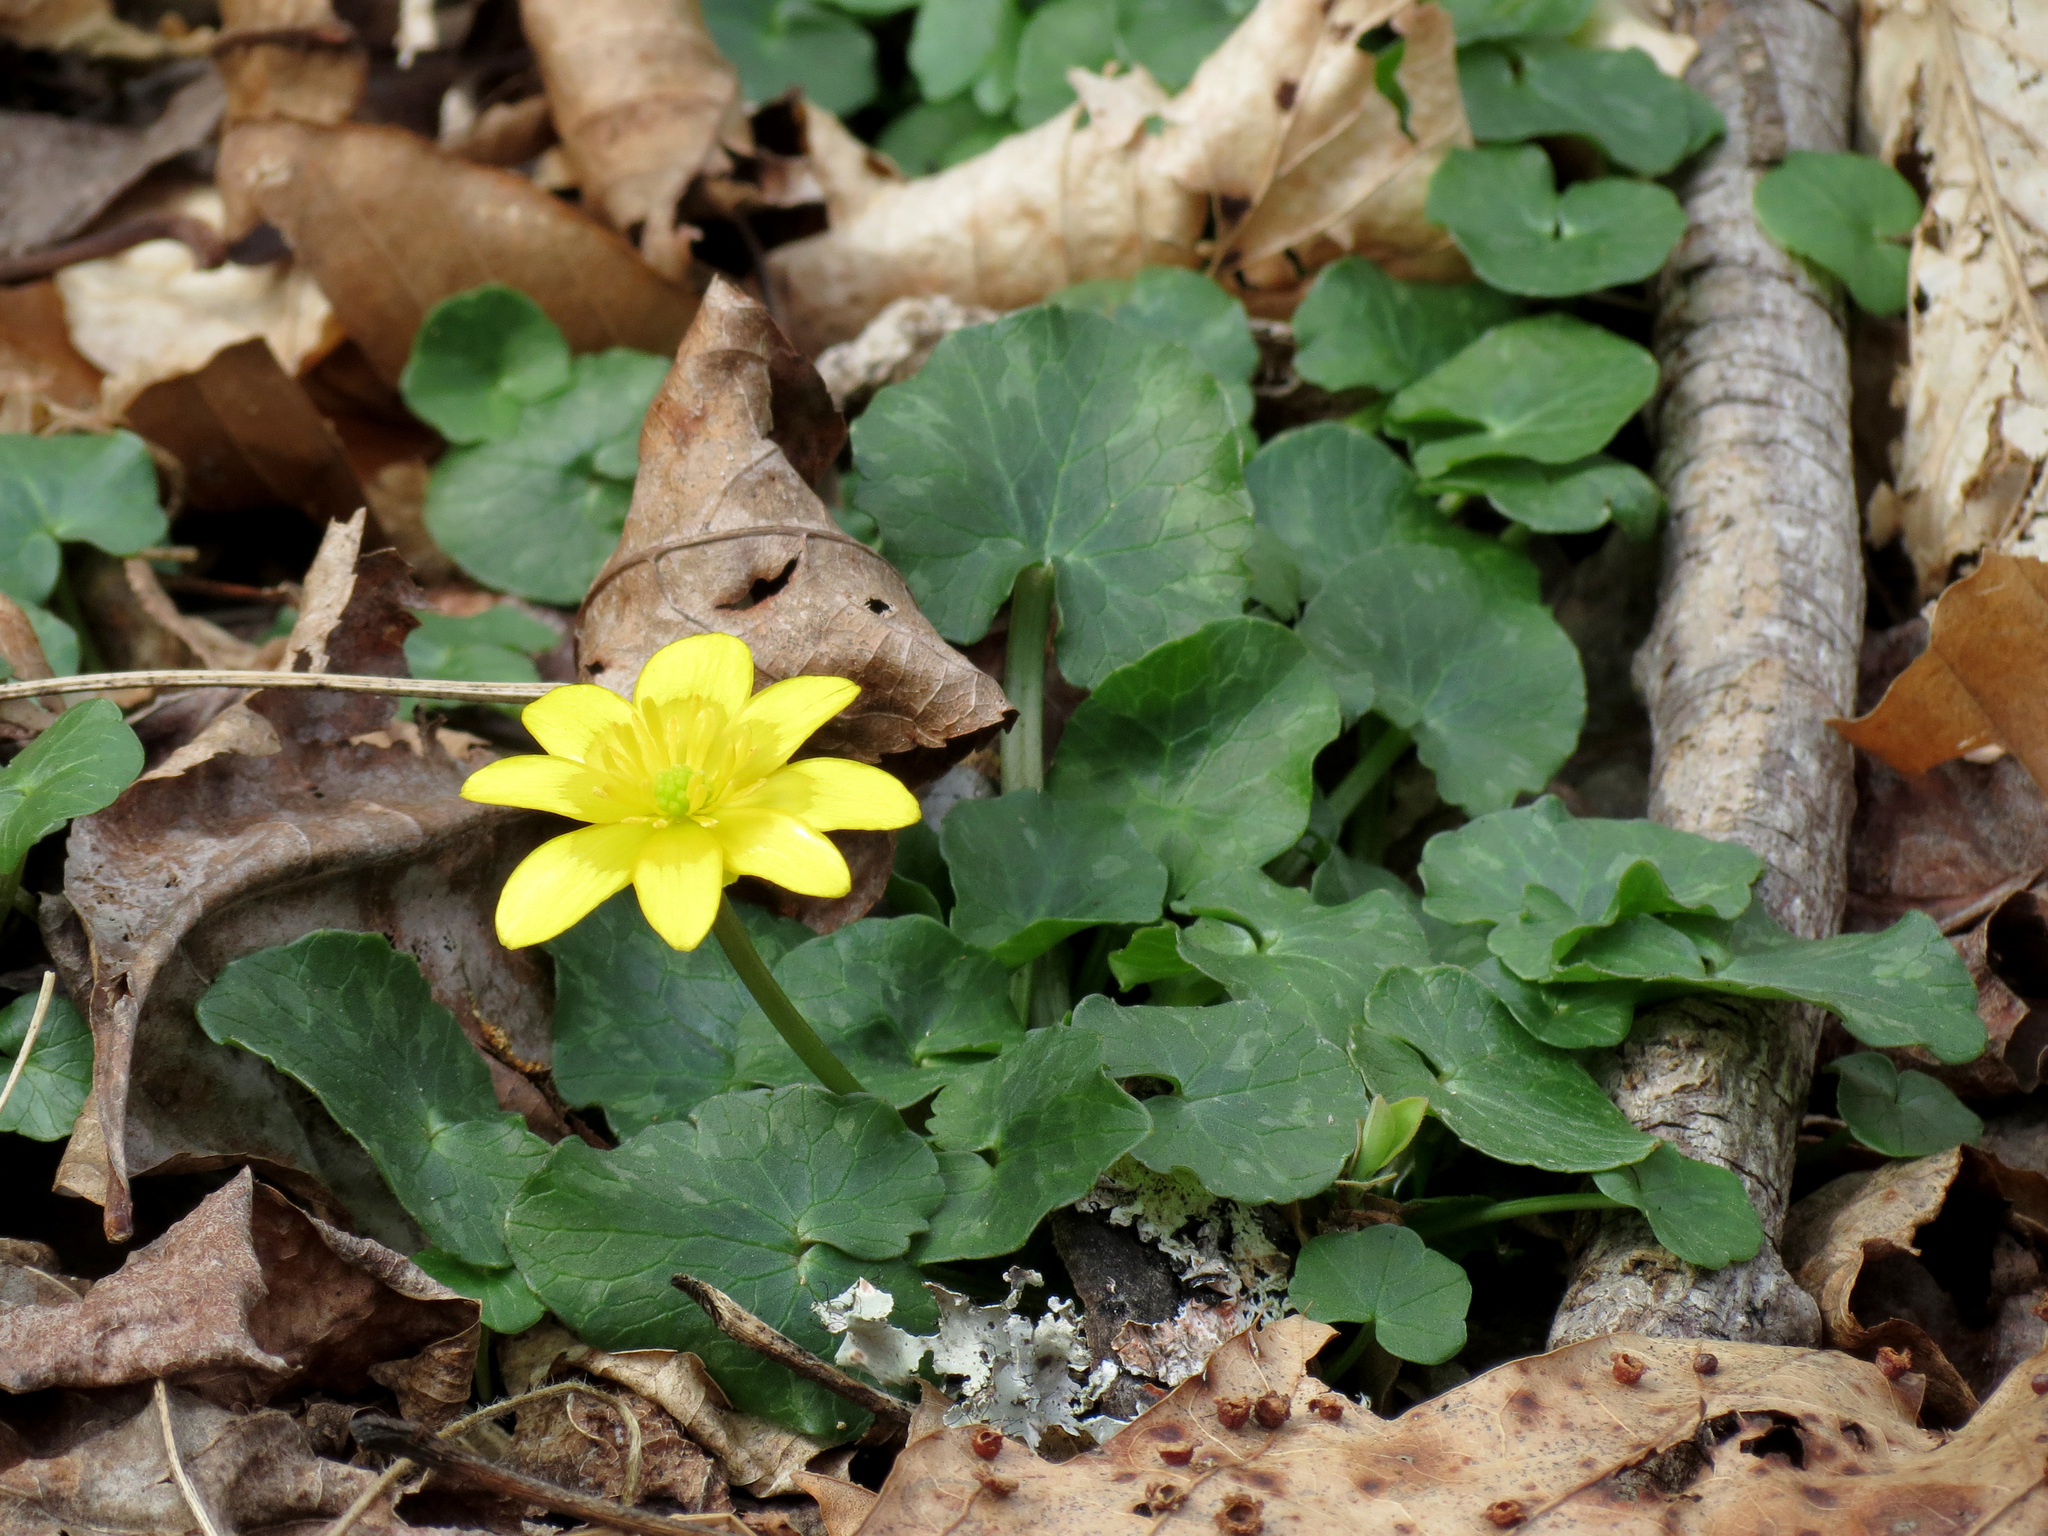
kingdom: Plantae
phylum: Tracheophyta
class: Magnoliopsida
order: Ranunculales
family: Ranunculaceae
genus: Ficaria
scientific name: Ficaria verna
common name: Lesser celandine
